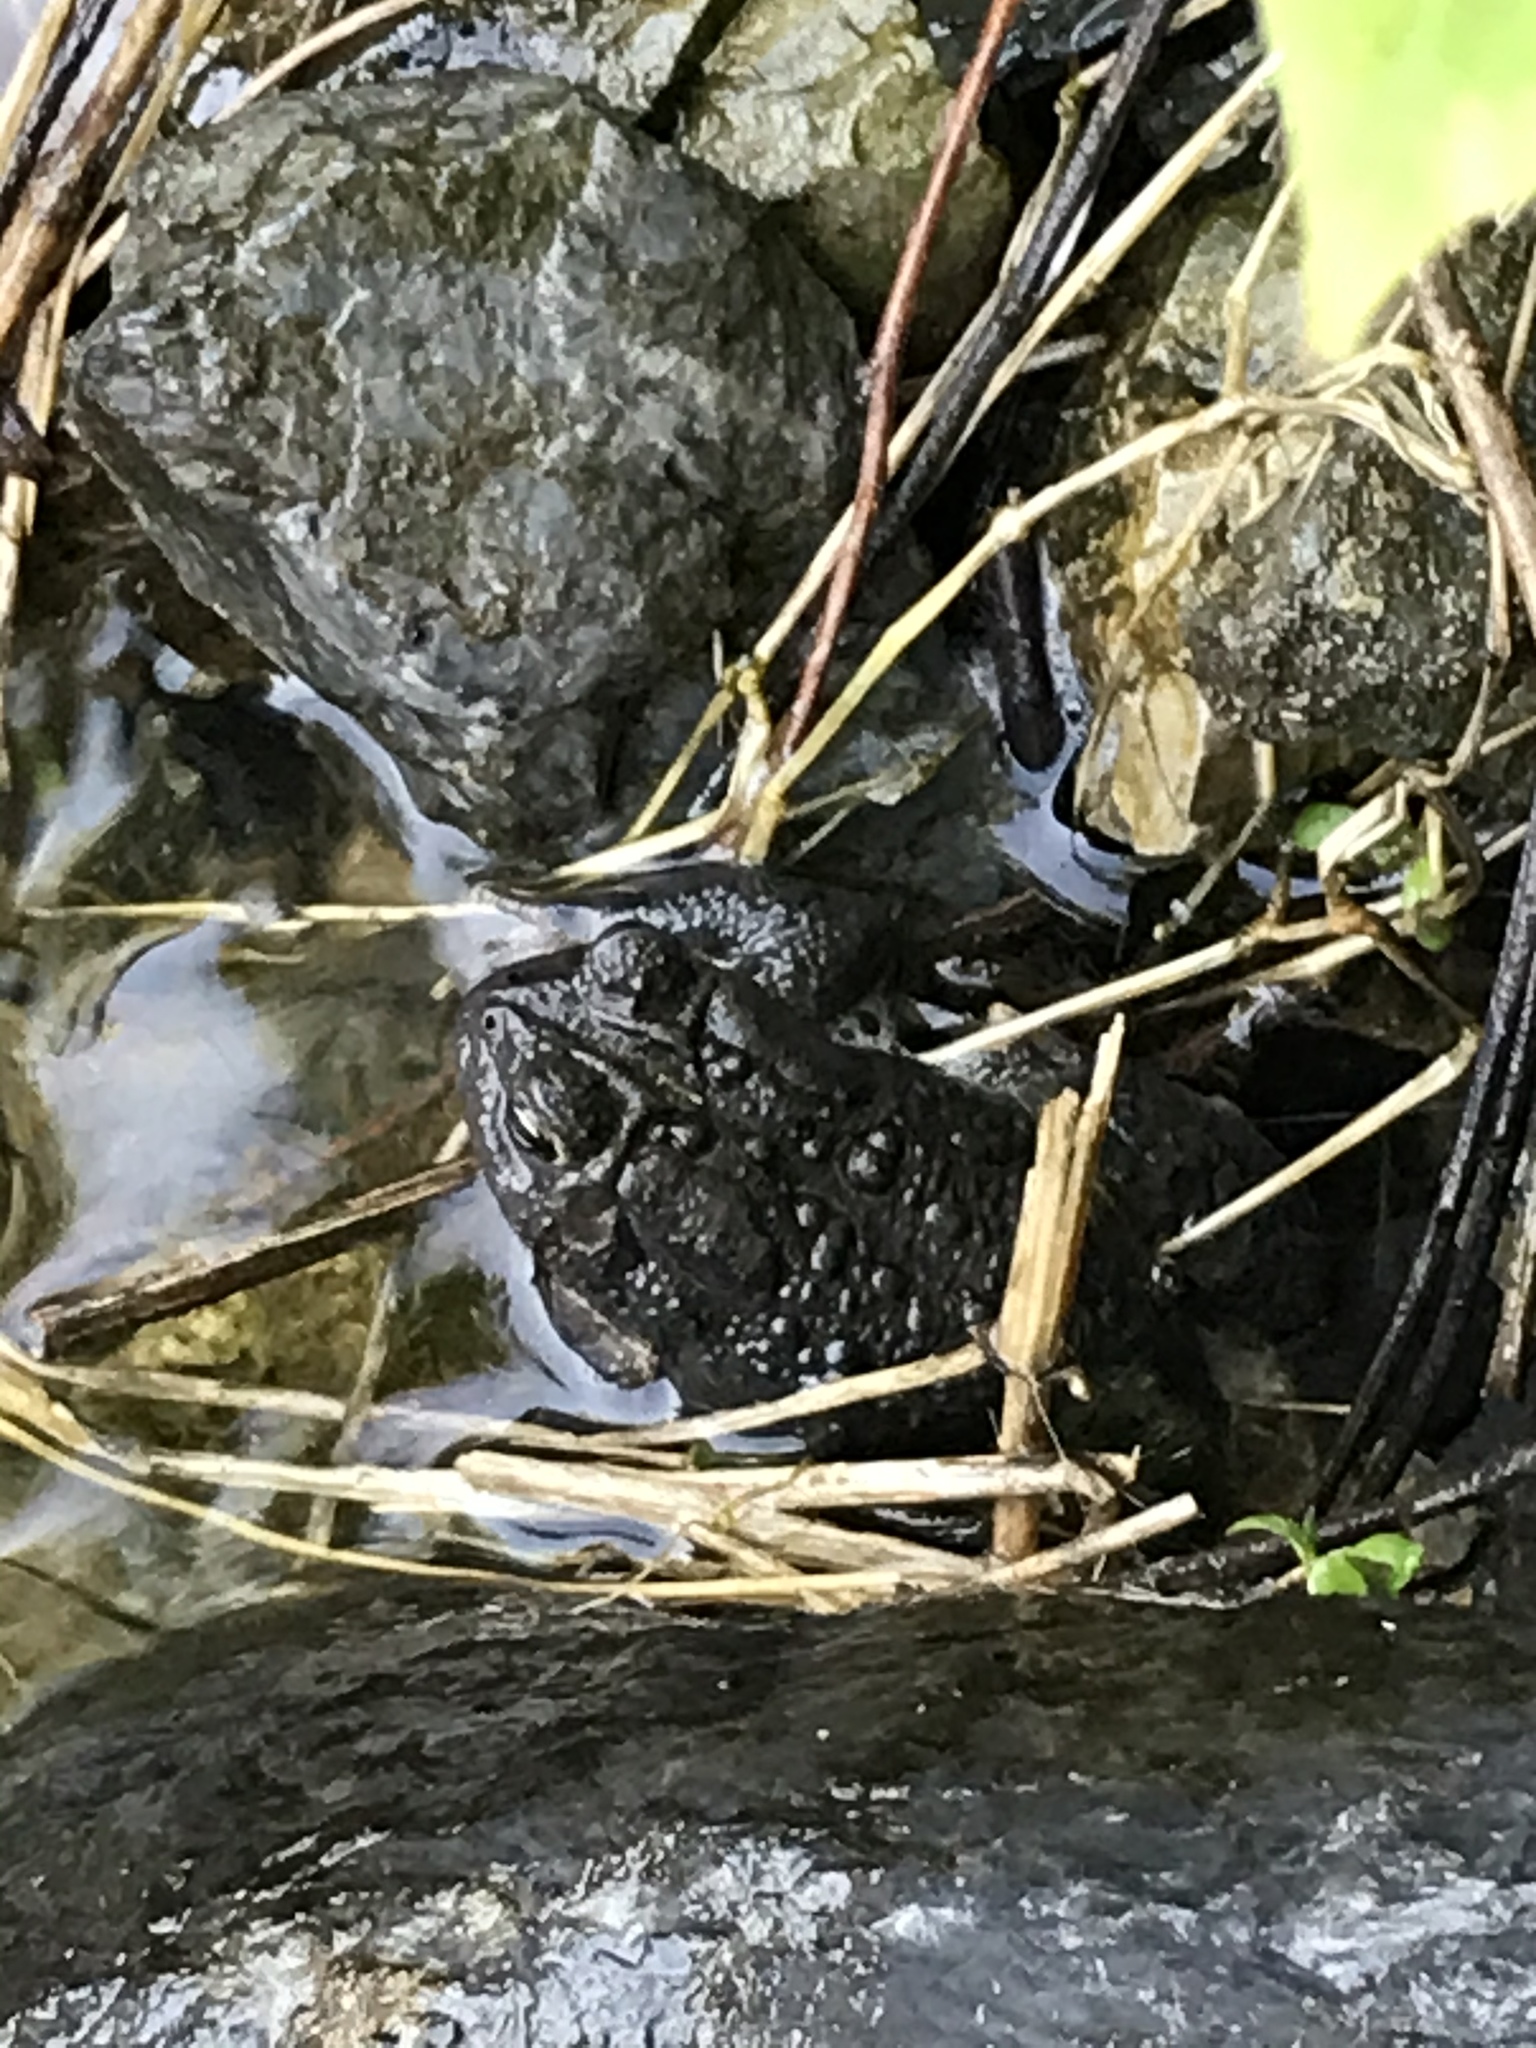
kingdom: Animalia
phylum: Chordata
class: Amphibia
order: Anura
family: Bufonidae
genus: Anaxyrus
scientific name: Anaxyrus americanus
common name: American toad
